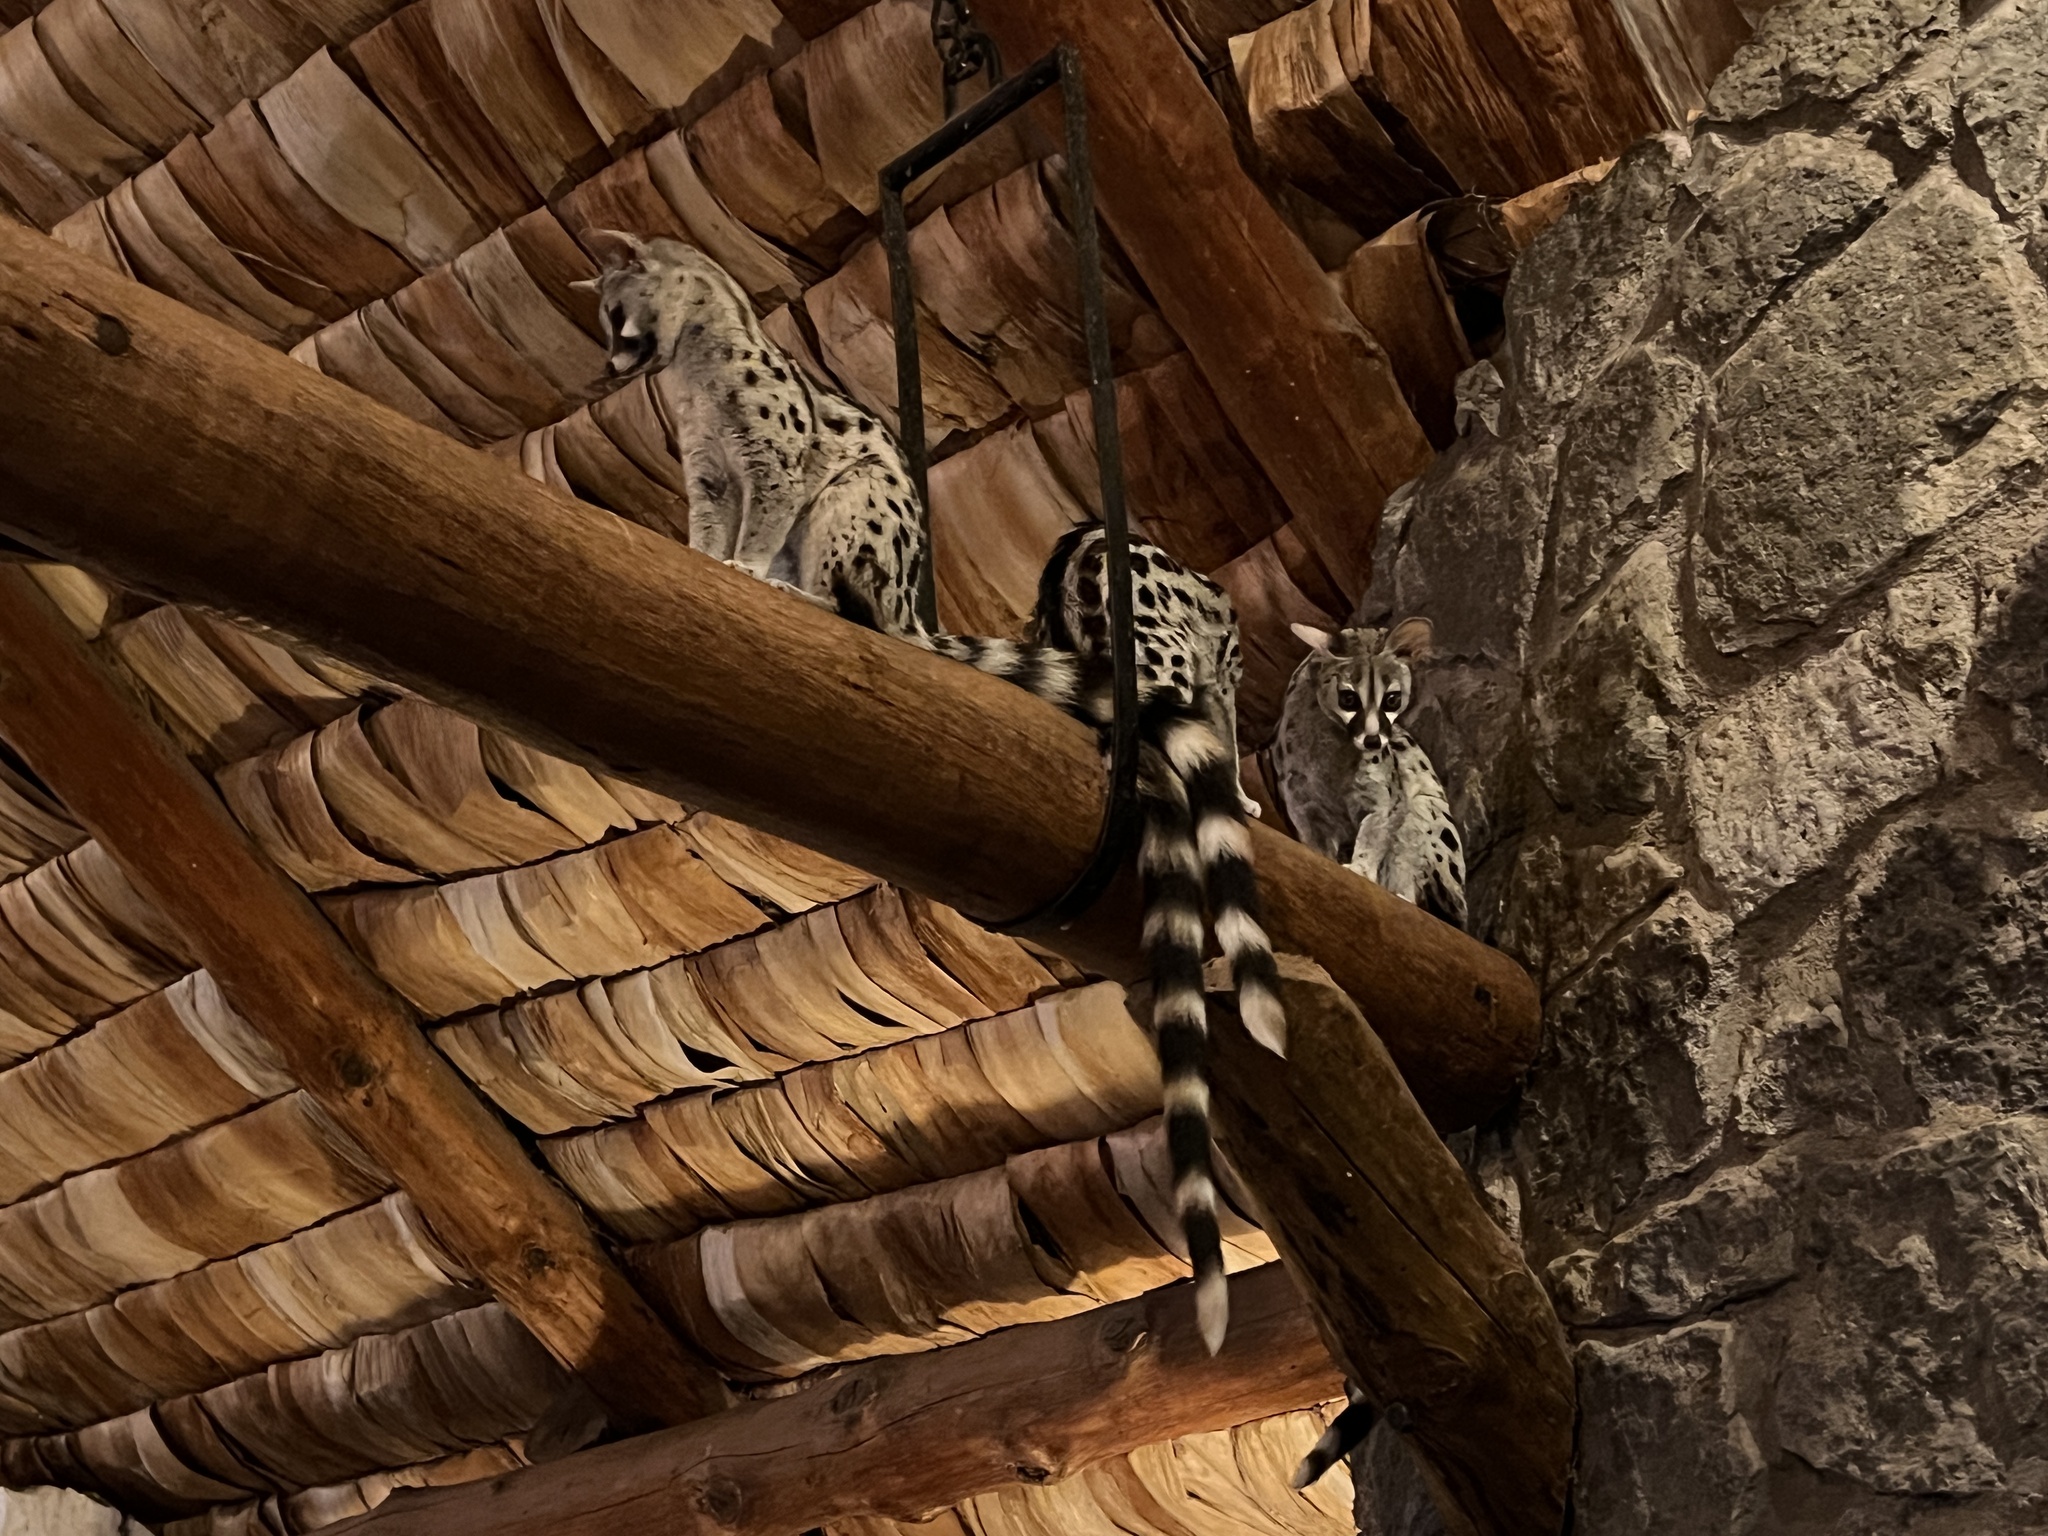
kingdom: Animalia
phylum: Chordata
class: Mammalia
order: Carnivora
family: Viverridae
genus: Genetta
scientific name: Genetta genetta
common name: Common genet
